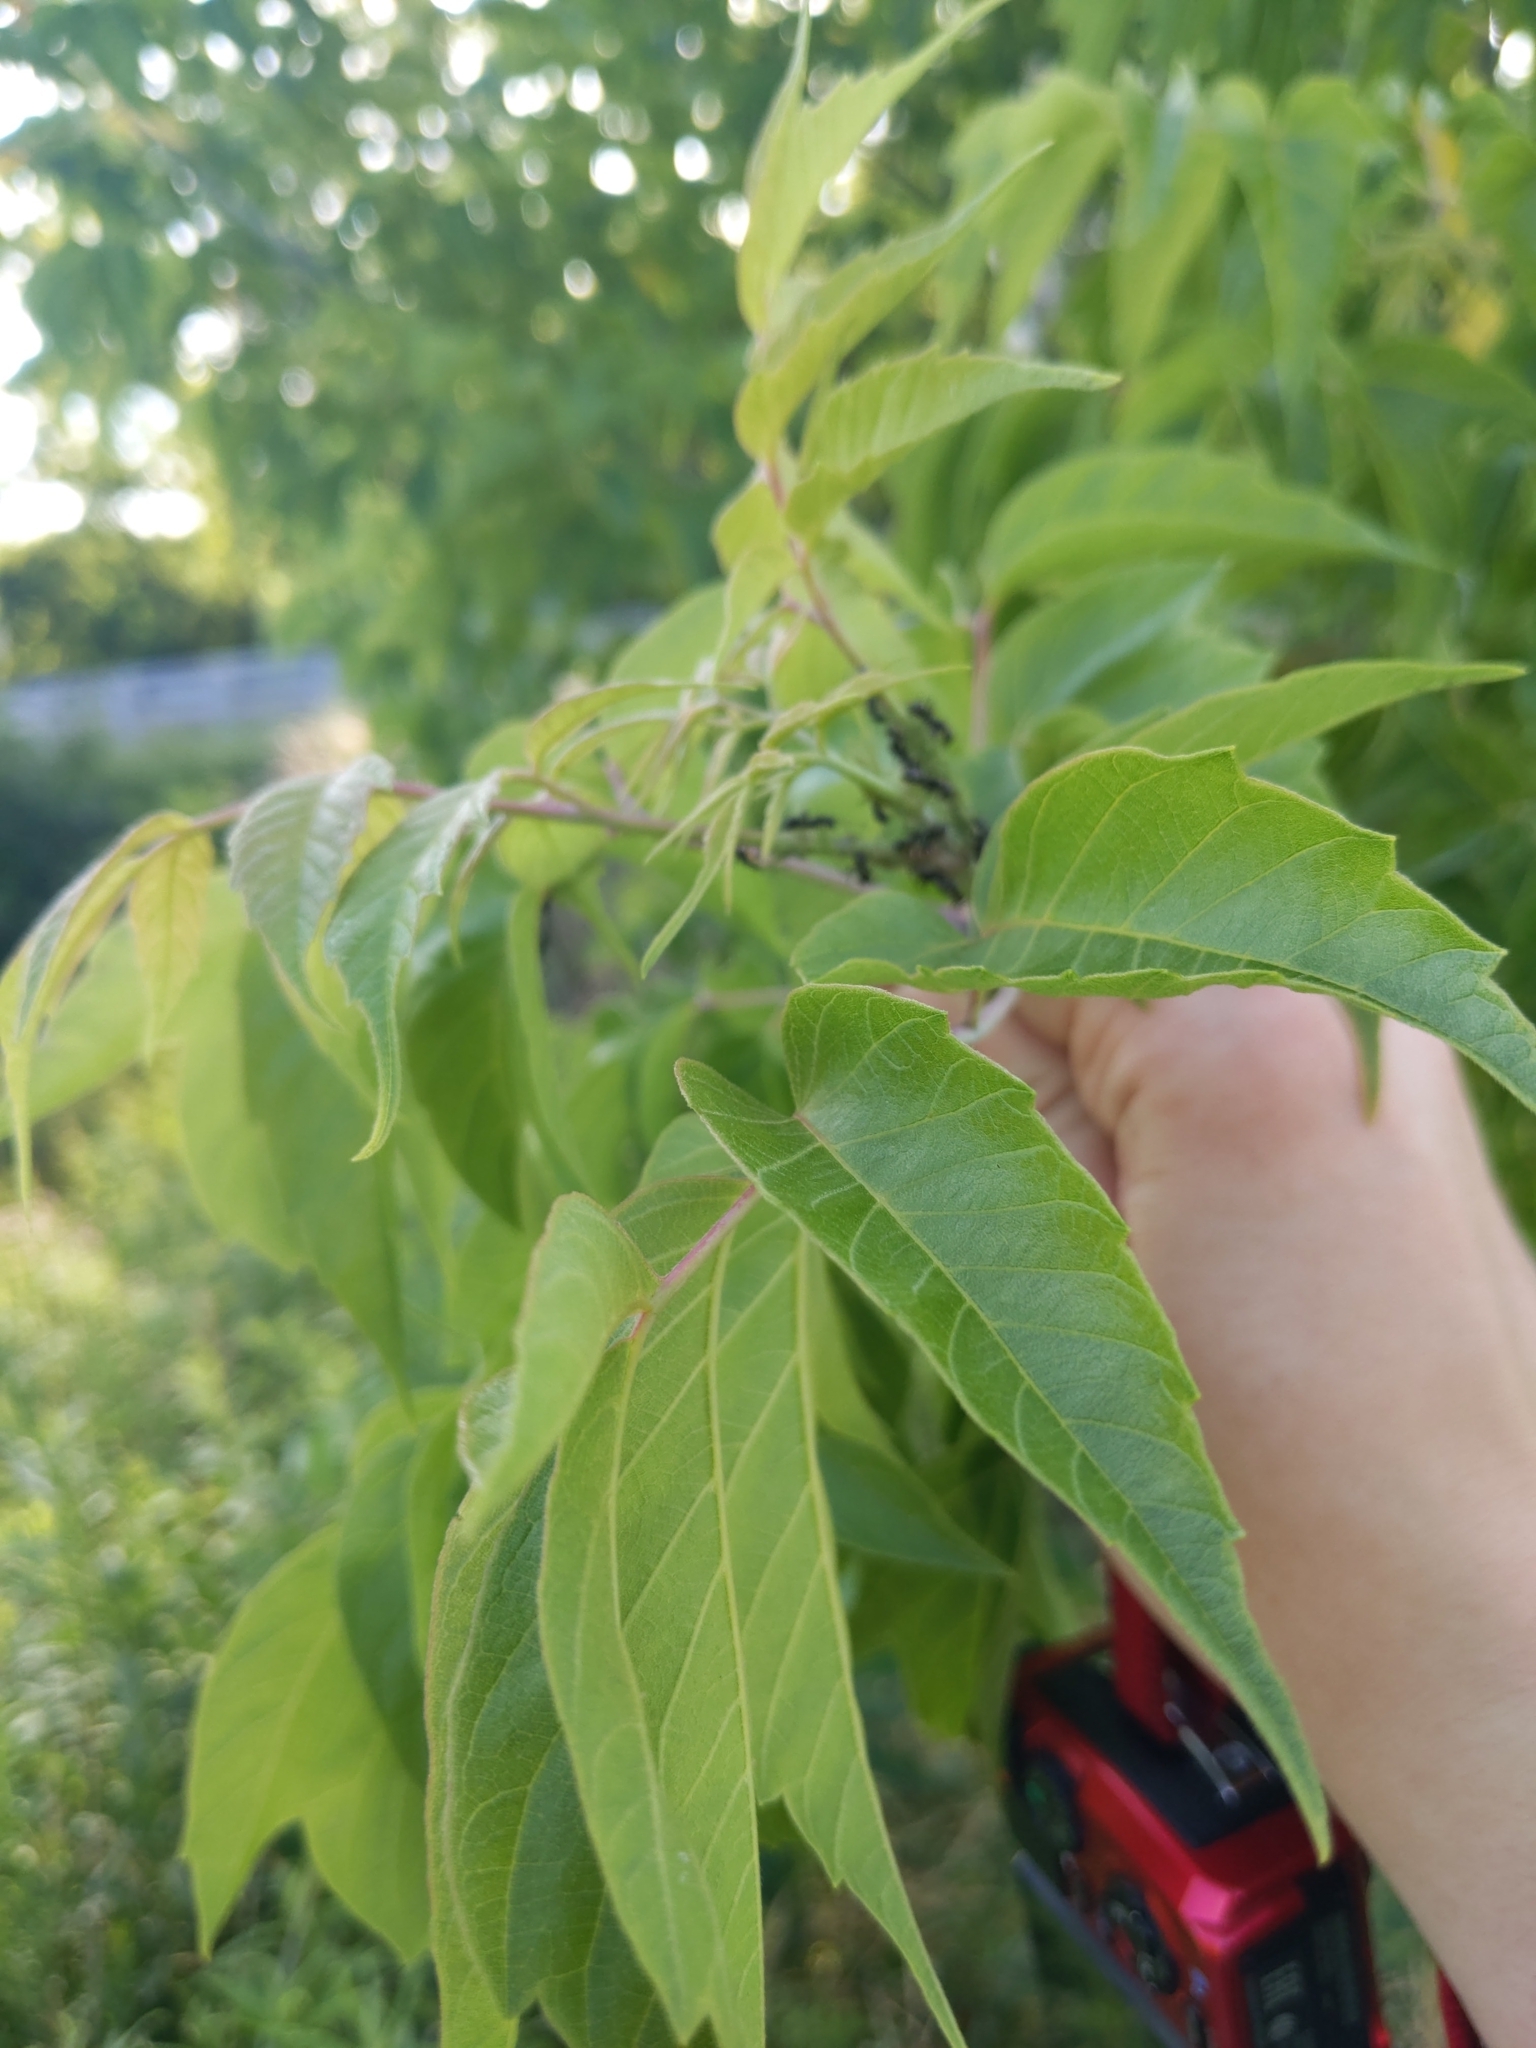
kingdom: Plantae
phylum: Tracheophyta
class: Magnoliopsida
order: Sapindales
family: Sapindaceae
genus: Acer
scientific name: Acer negundo
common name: Ashleaf maple
